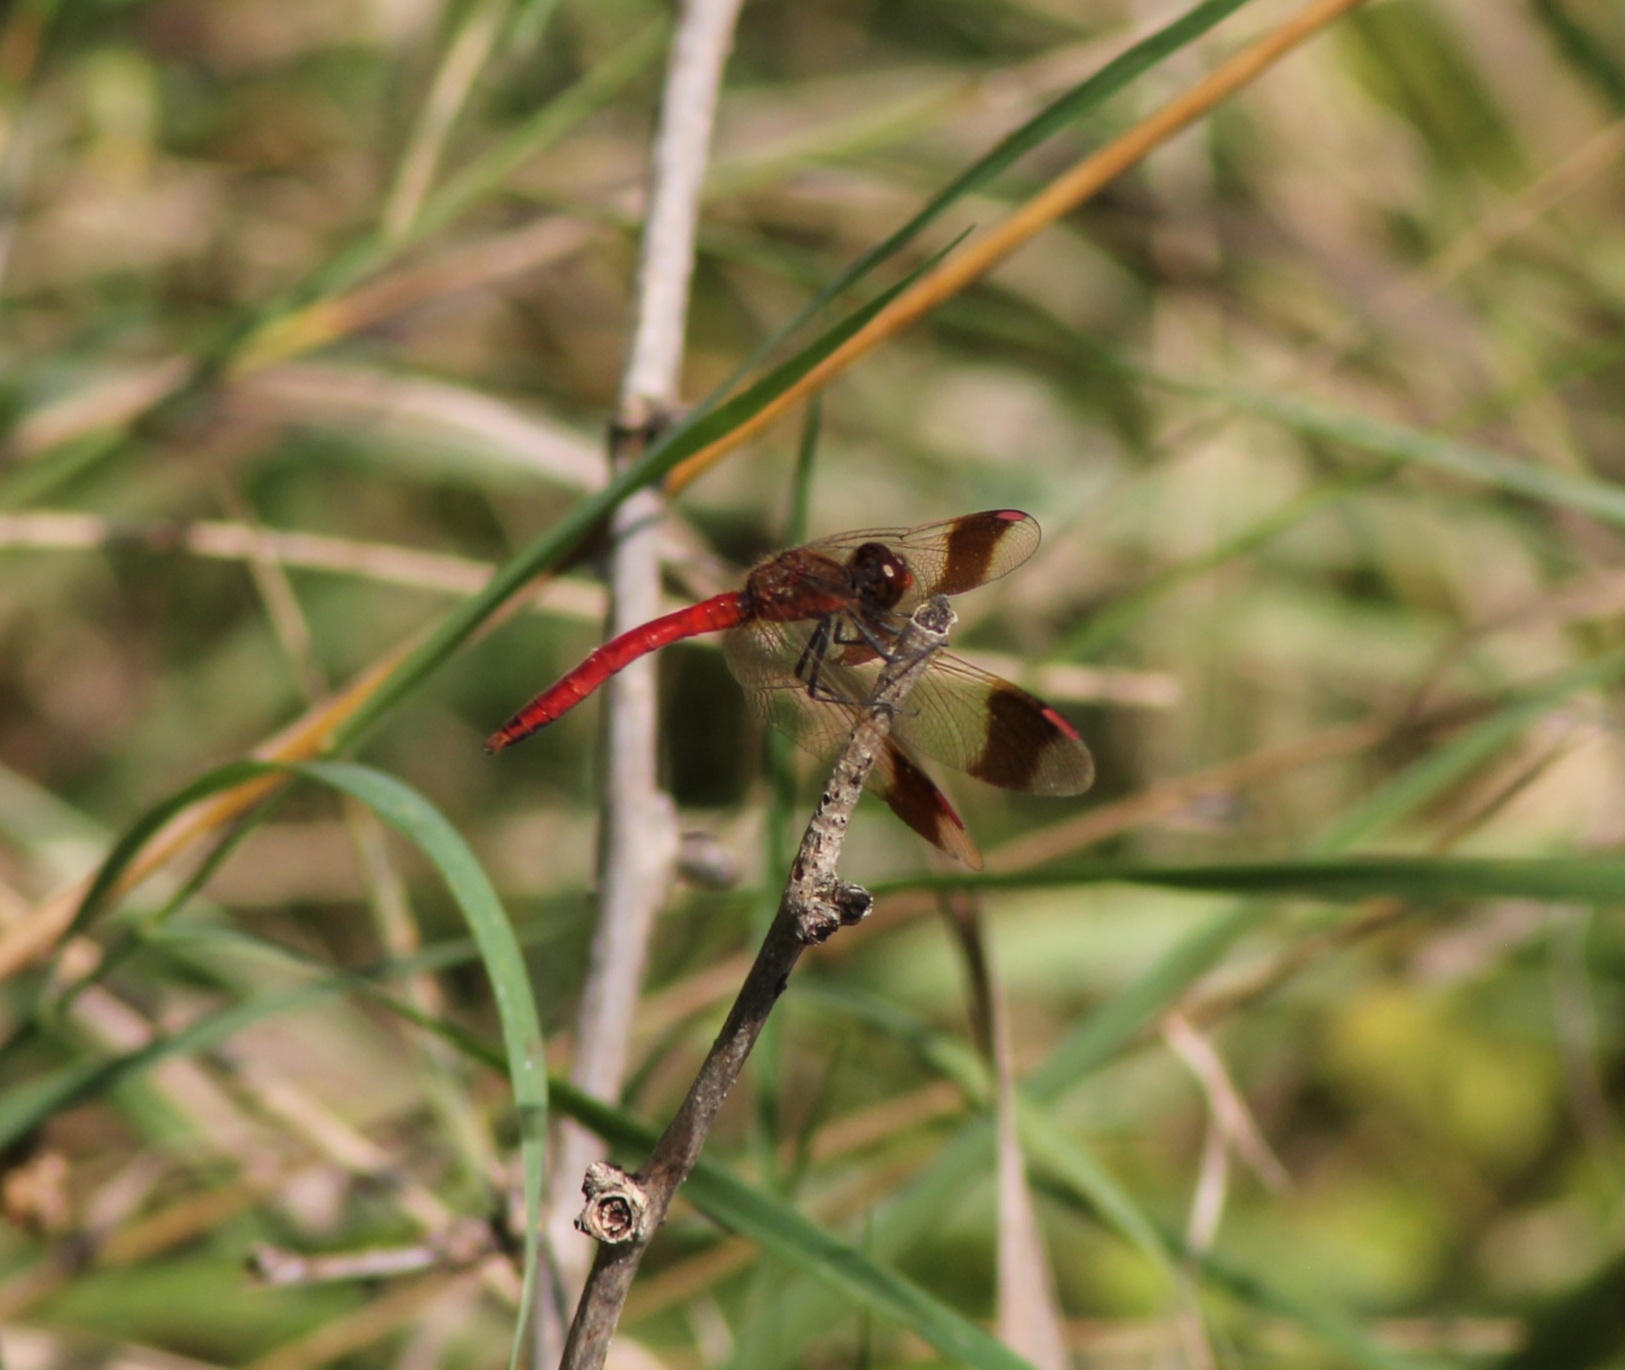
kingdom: Animalia
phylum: Arthropoda
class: Insecta
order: Odonata
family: Libellulidae
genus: Sympetrum
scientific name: Sympetrum pedemontanum
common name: Banded darter
